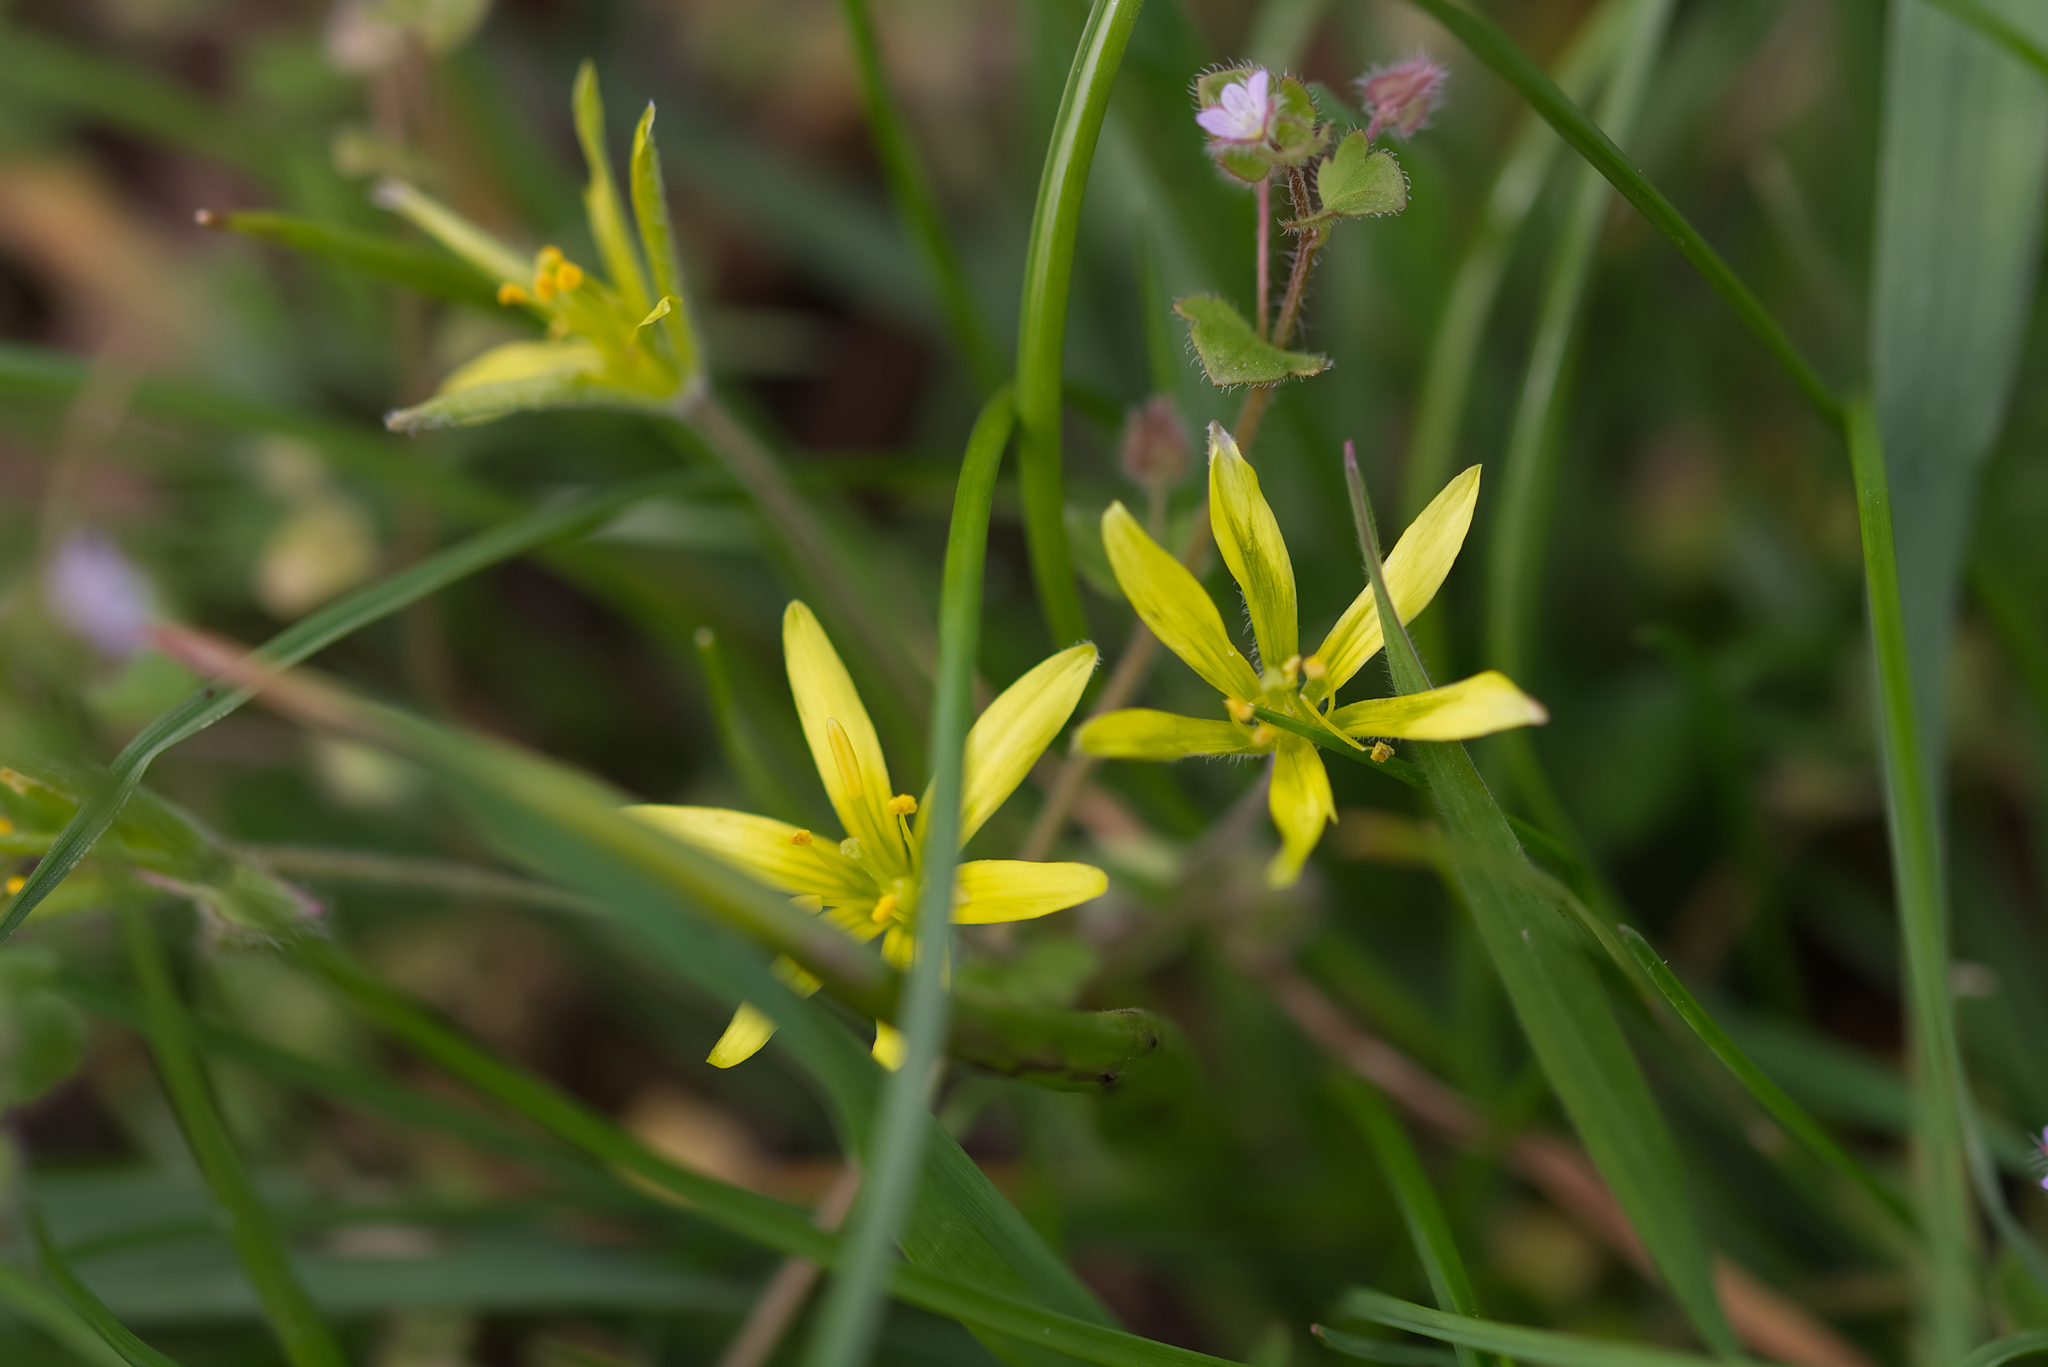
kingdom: Plantae
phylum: Tracheophyta
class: Liliopsida
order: Liliales
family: Liliaceae
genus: Gagea
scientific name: Gagea villosa
